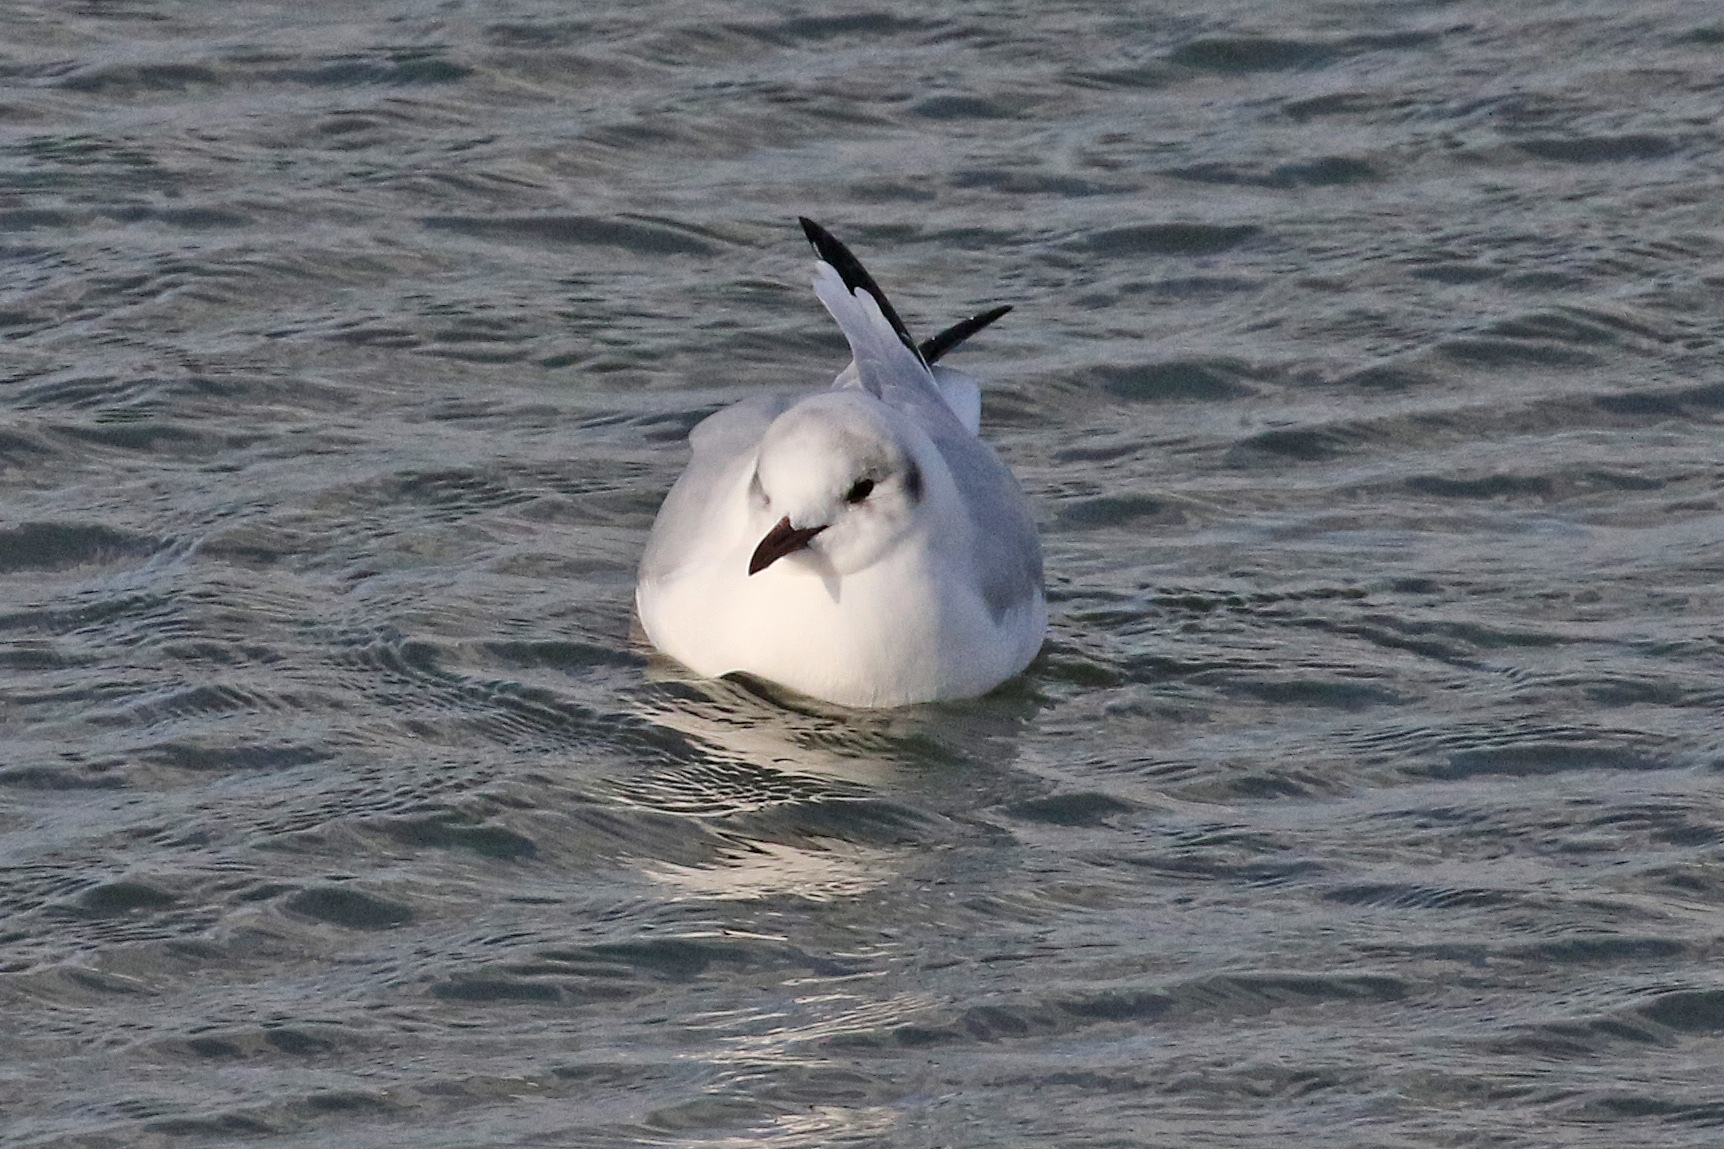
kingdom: Animalia
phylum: Chordata
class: Aves
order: Charadriiformes
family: Laridae
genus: Chroicocephalus
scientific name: Chroicocephalus ridibundus
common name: Black-headed gull
